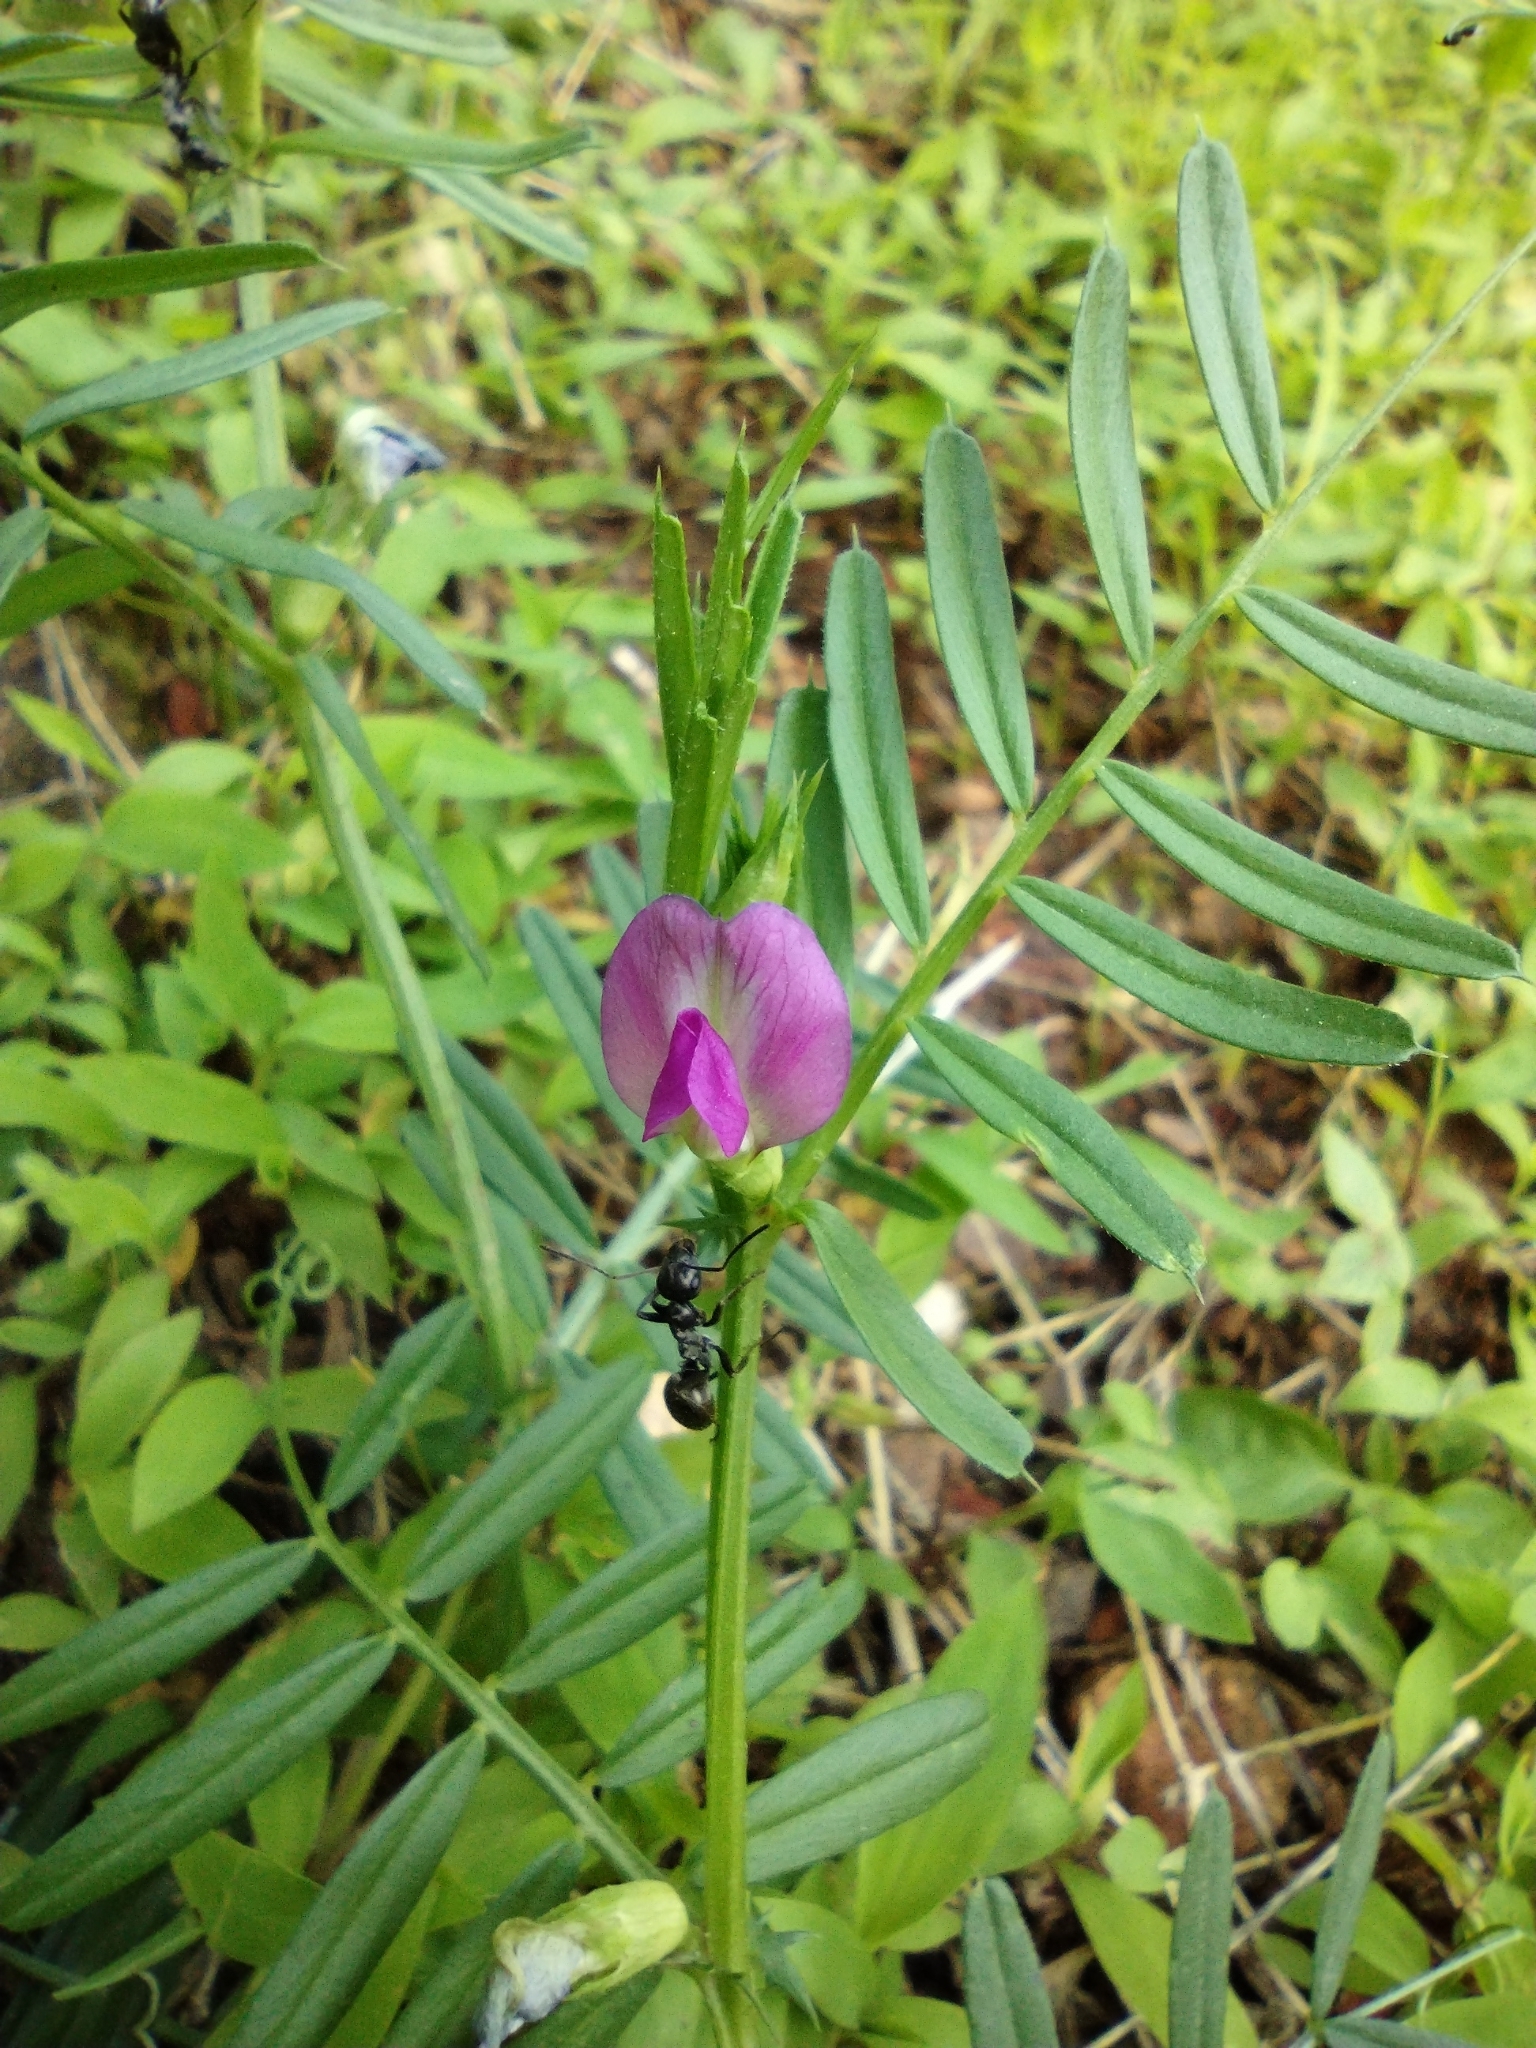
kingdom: Plantae
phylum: Tracheophyta
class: Magnoliopsida
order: Fabales
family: Fabaceae
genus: Vicia
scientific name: Vicia sativa
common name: Garden vetch
